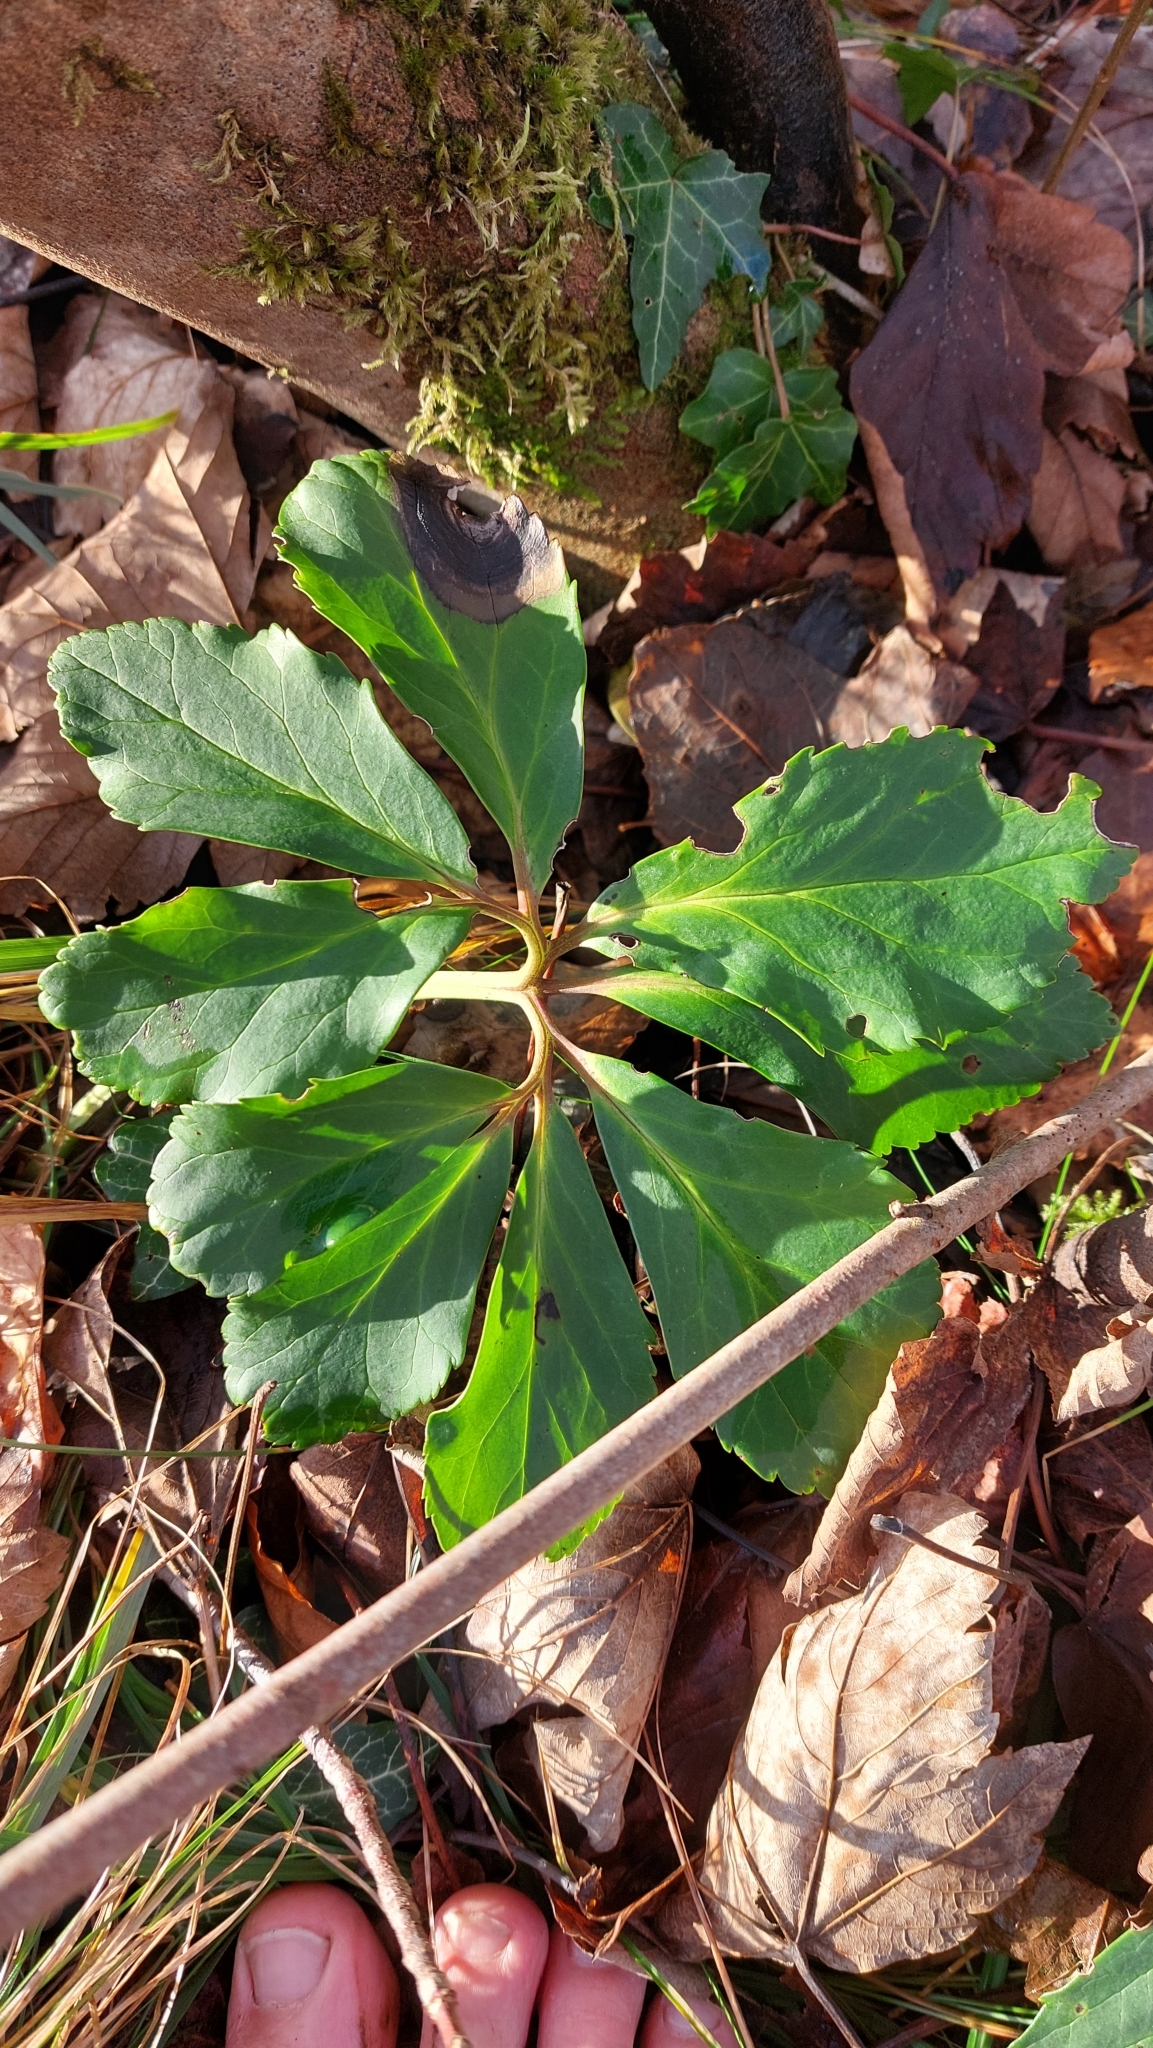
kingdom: Plantae
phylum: Tracheophyta
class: Magnoliopsida
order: Ranunculales
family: Ranunculaceae
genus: Helleborus
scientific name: Helleborus niger
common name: Black hellebore
